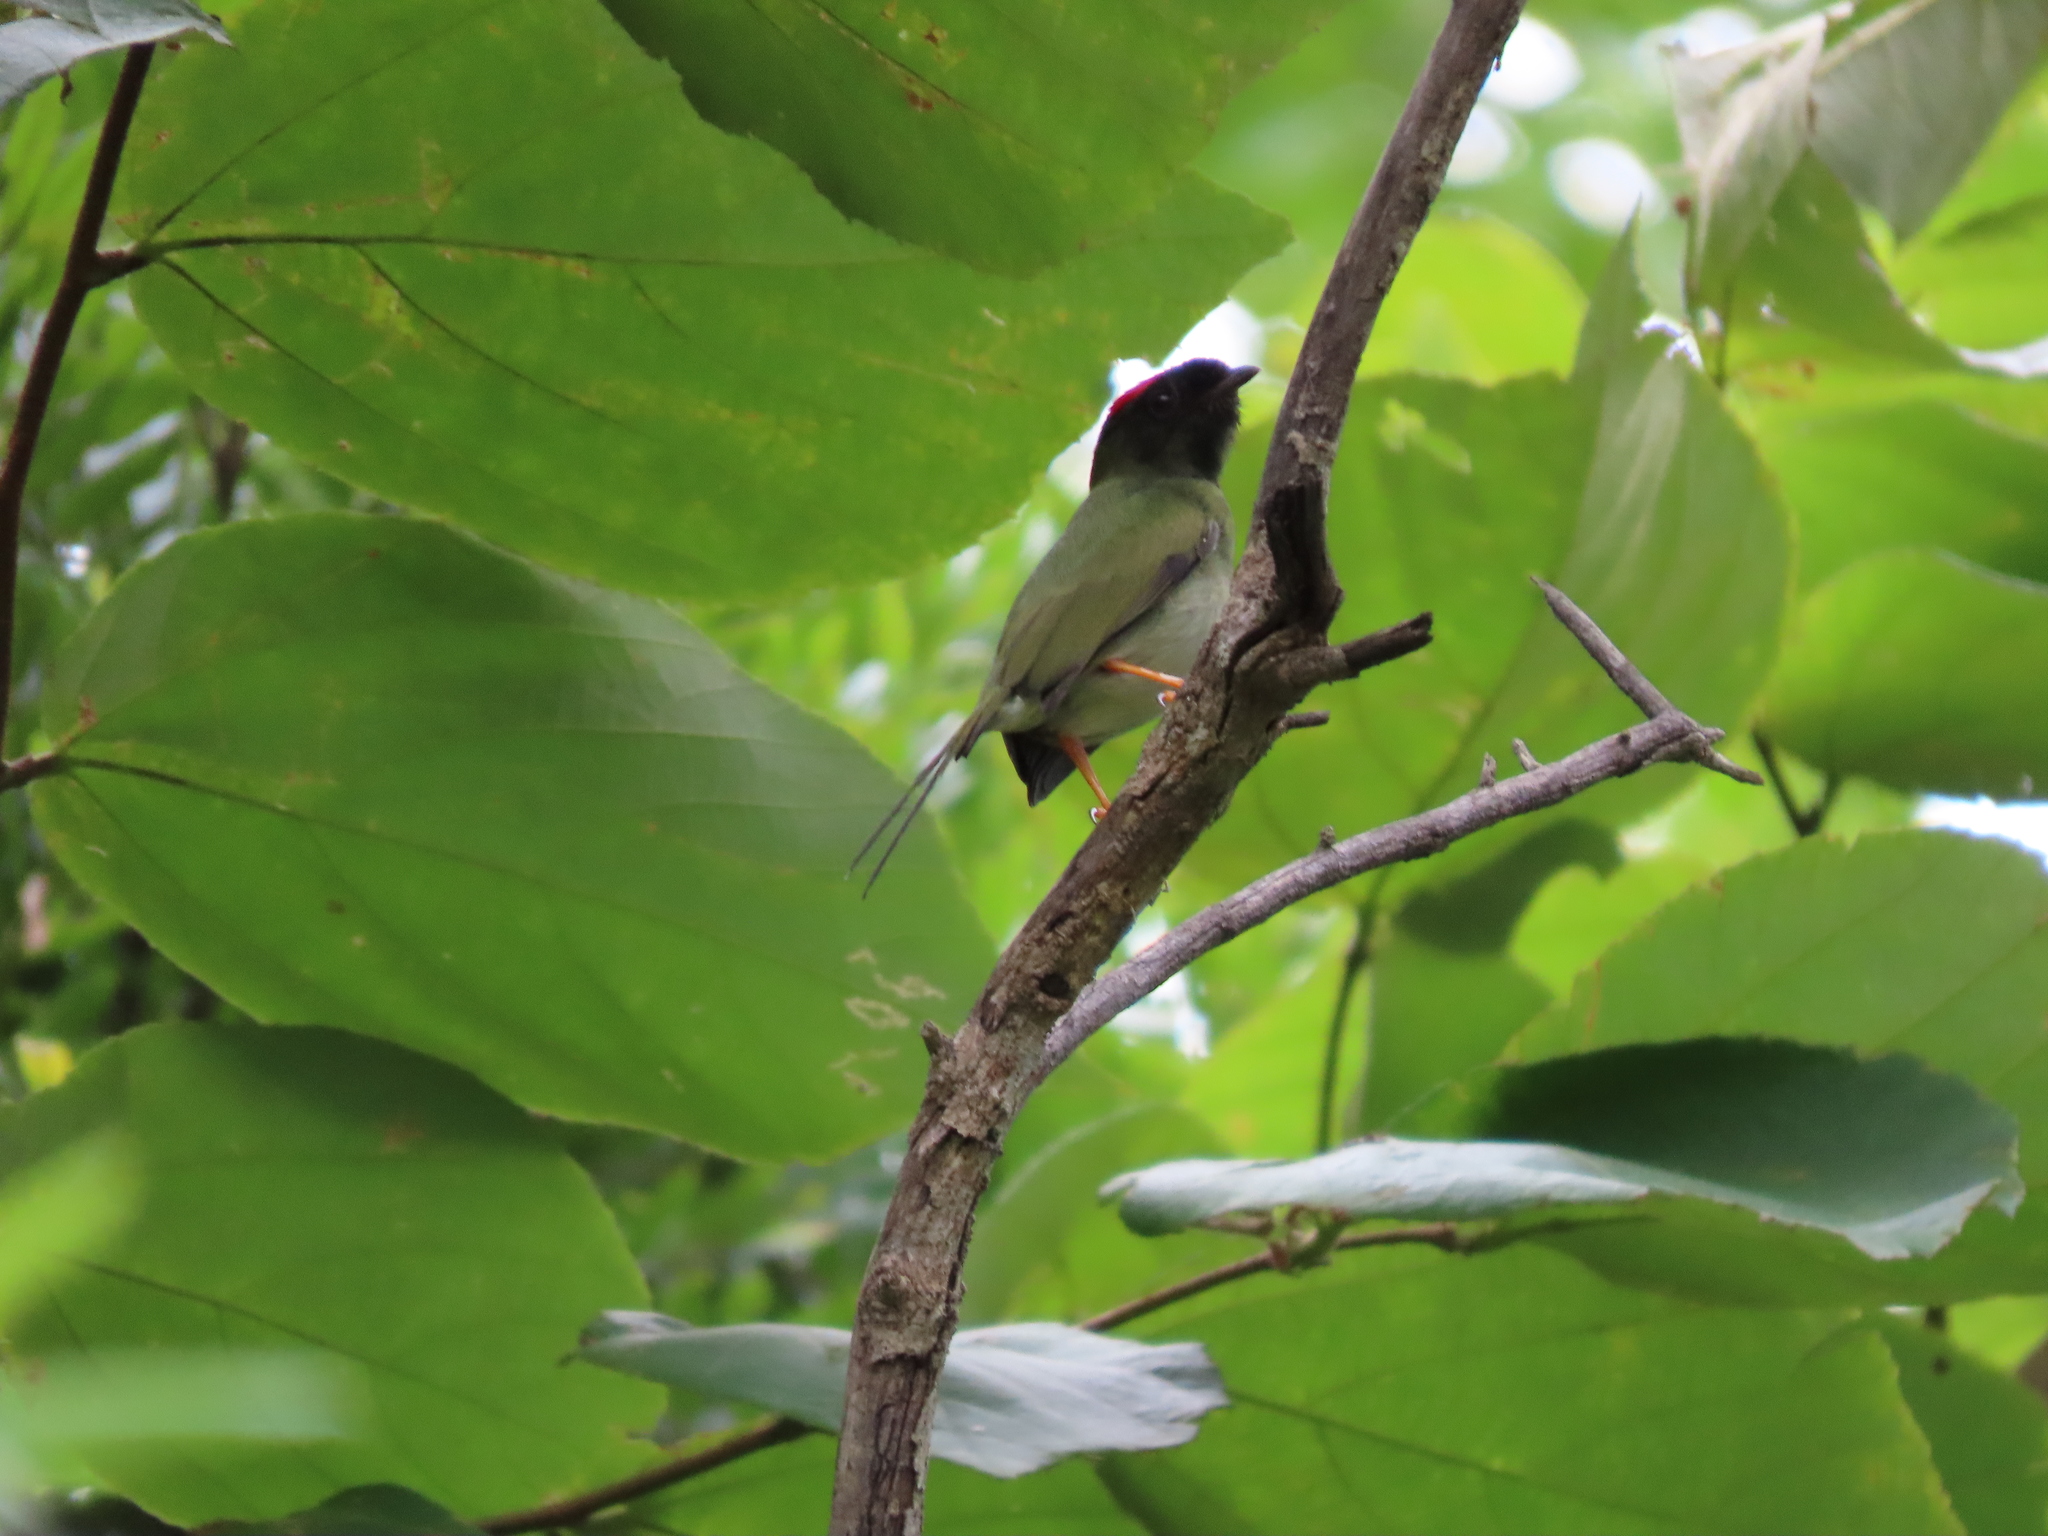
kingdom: Animalia
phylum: Chordata
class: Aves
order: Passeriformes
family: Pipridae
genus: Chiroxiphia
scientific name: Chiroxiphia linearis
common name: Long-tailed manakin
